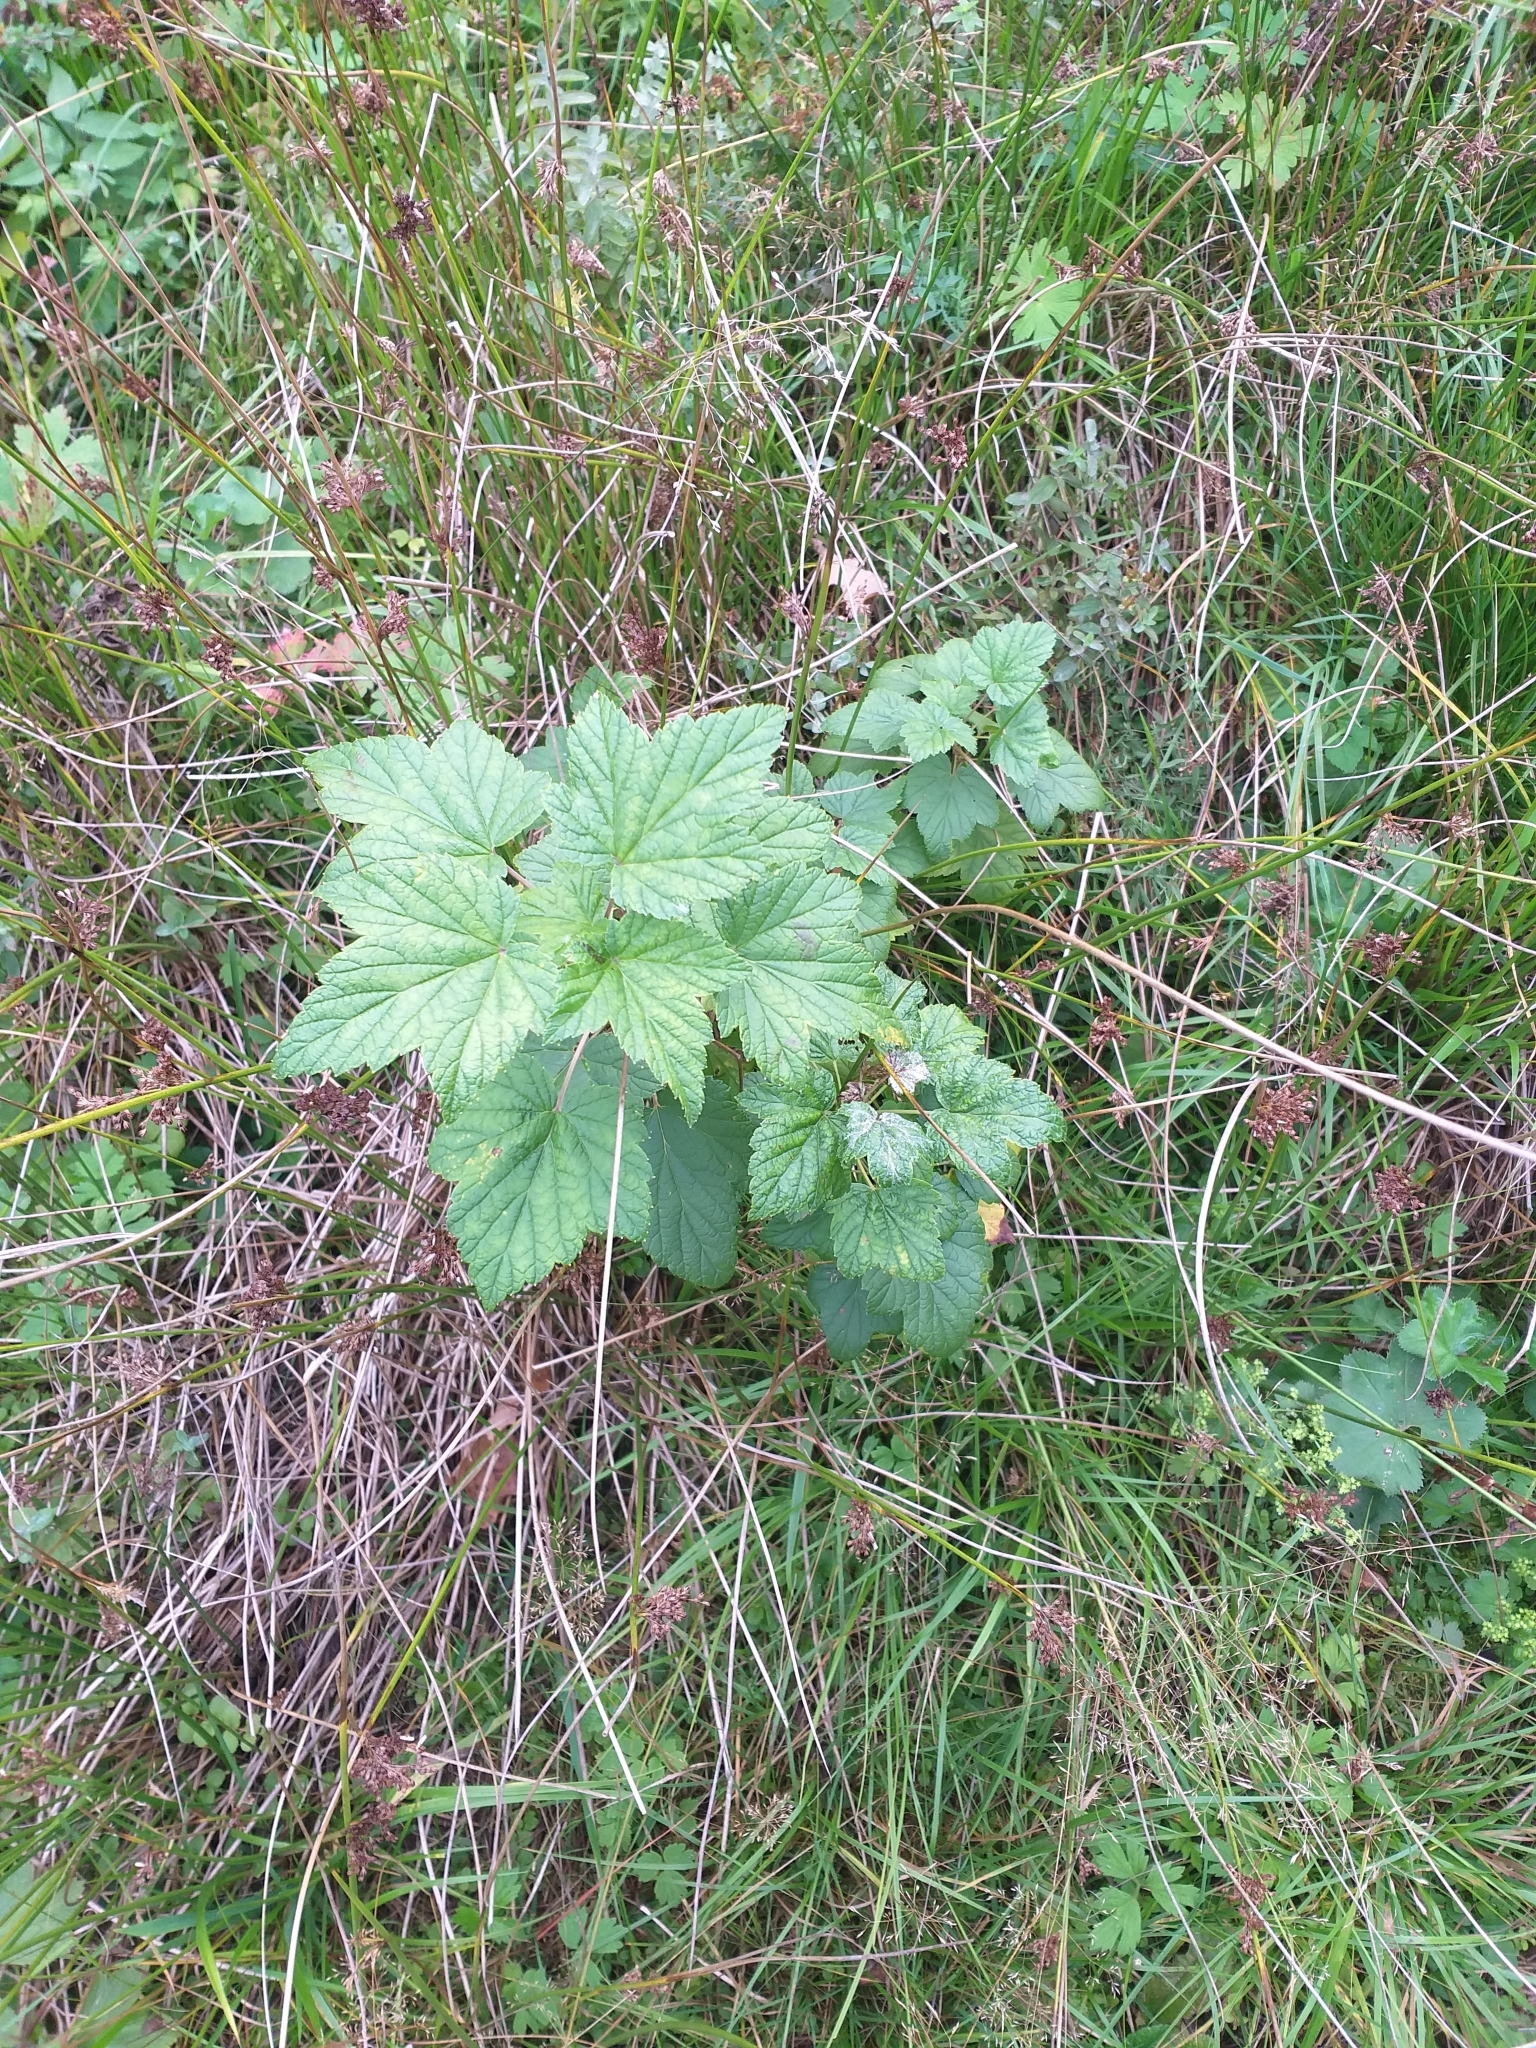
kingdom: Plantae
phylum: Tracheophyta
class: Magnoliopsida
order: Saxifragales
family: Grossulariaceae
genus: Ribes
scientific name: Ribes nigrum
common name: Black currant
